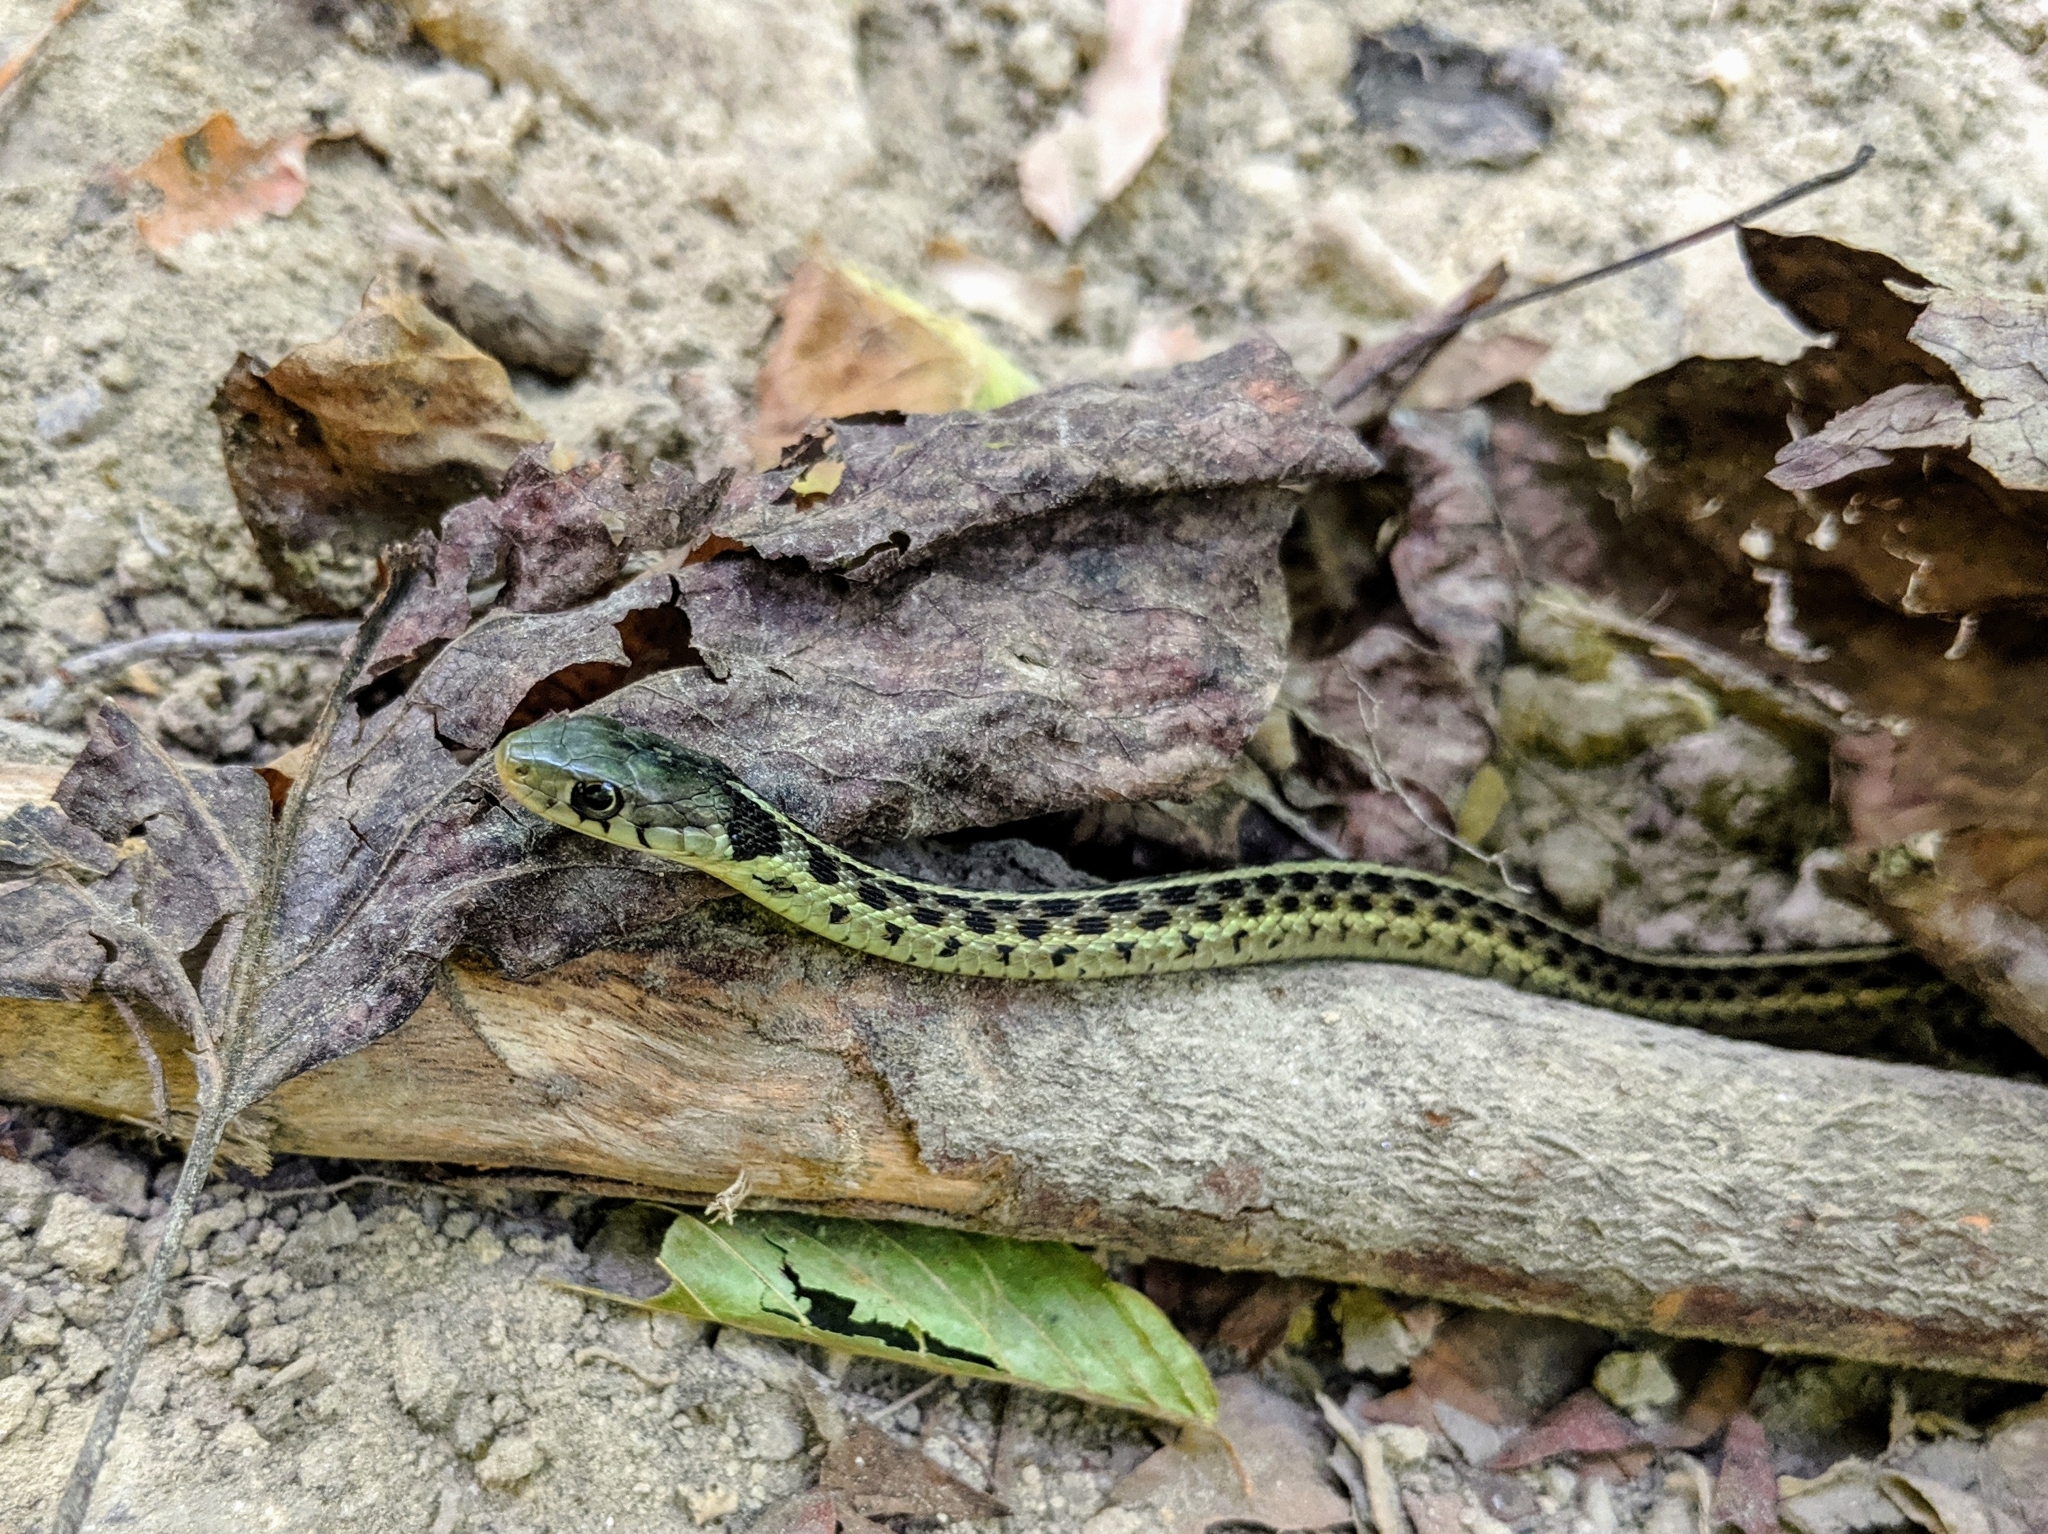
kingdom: Animalia
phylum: Chordata
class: Squamata
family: Colubridae
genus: Thamnophis
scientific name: Thamnophis sirtalis
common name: Common garter snake
